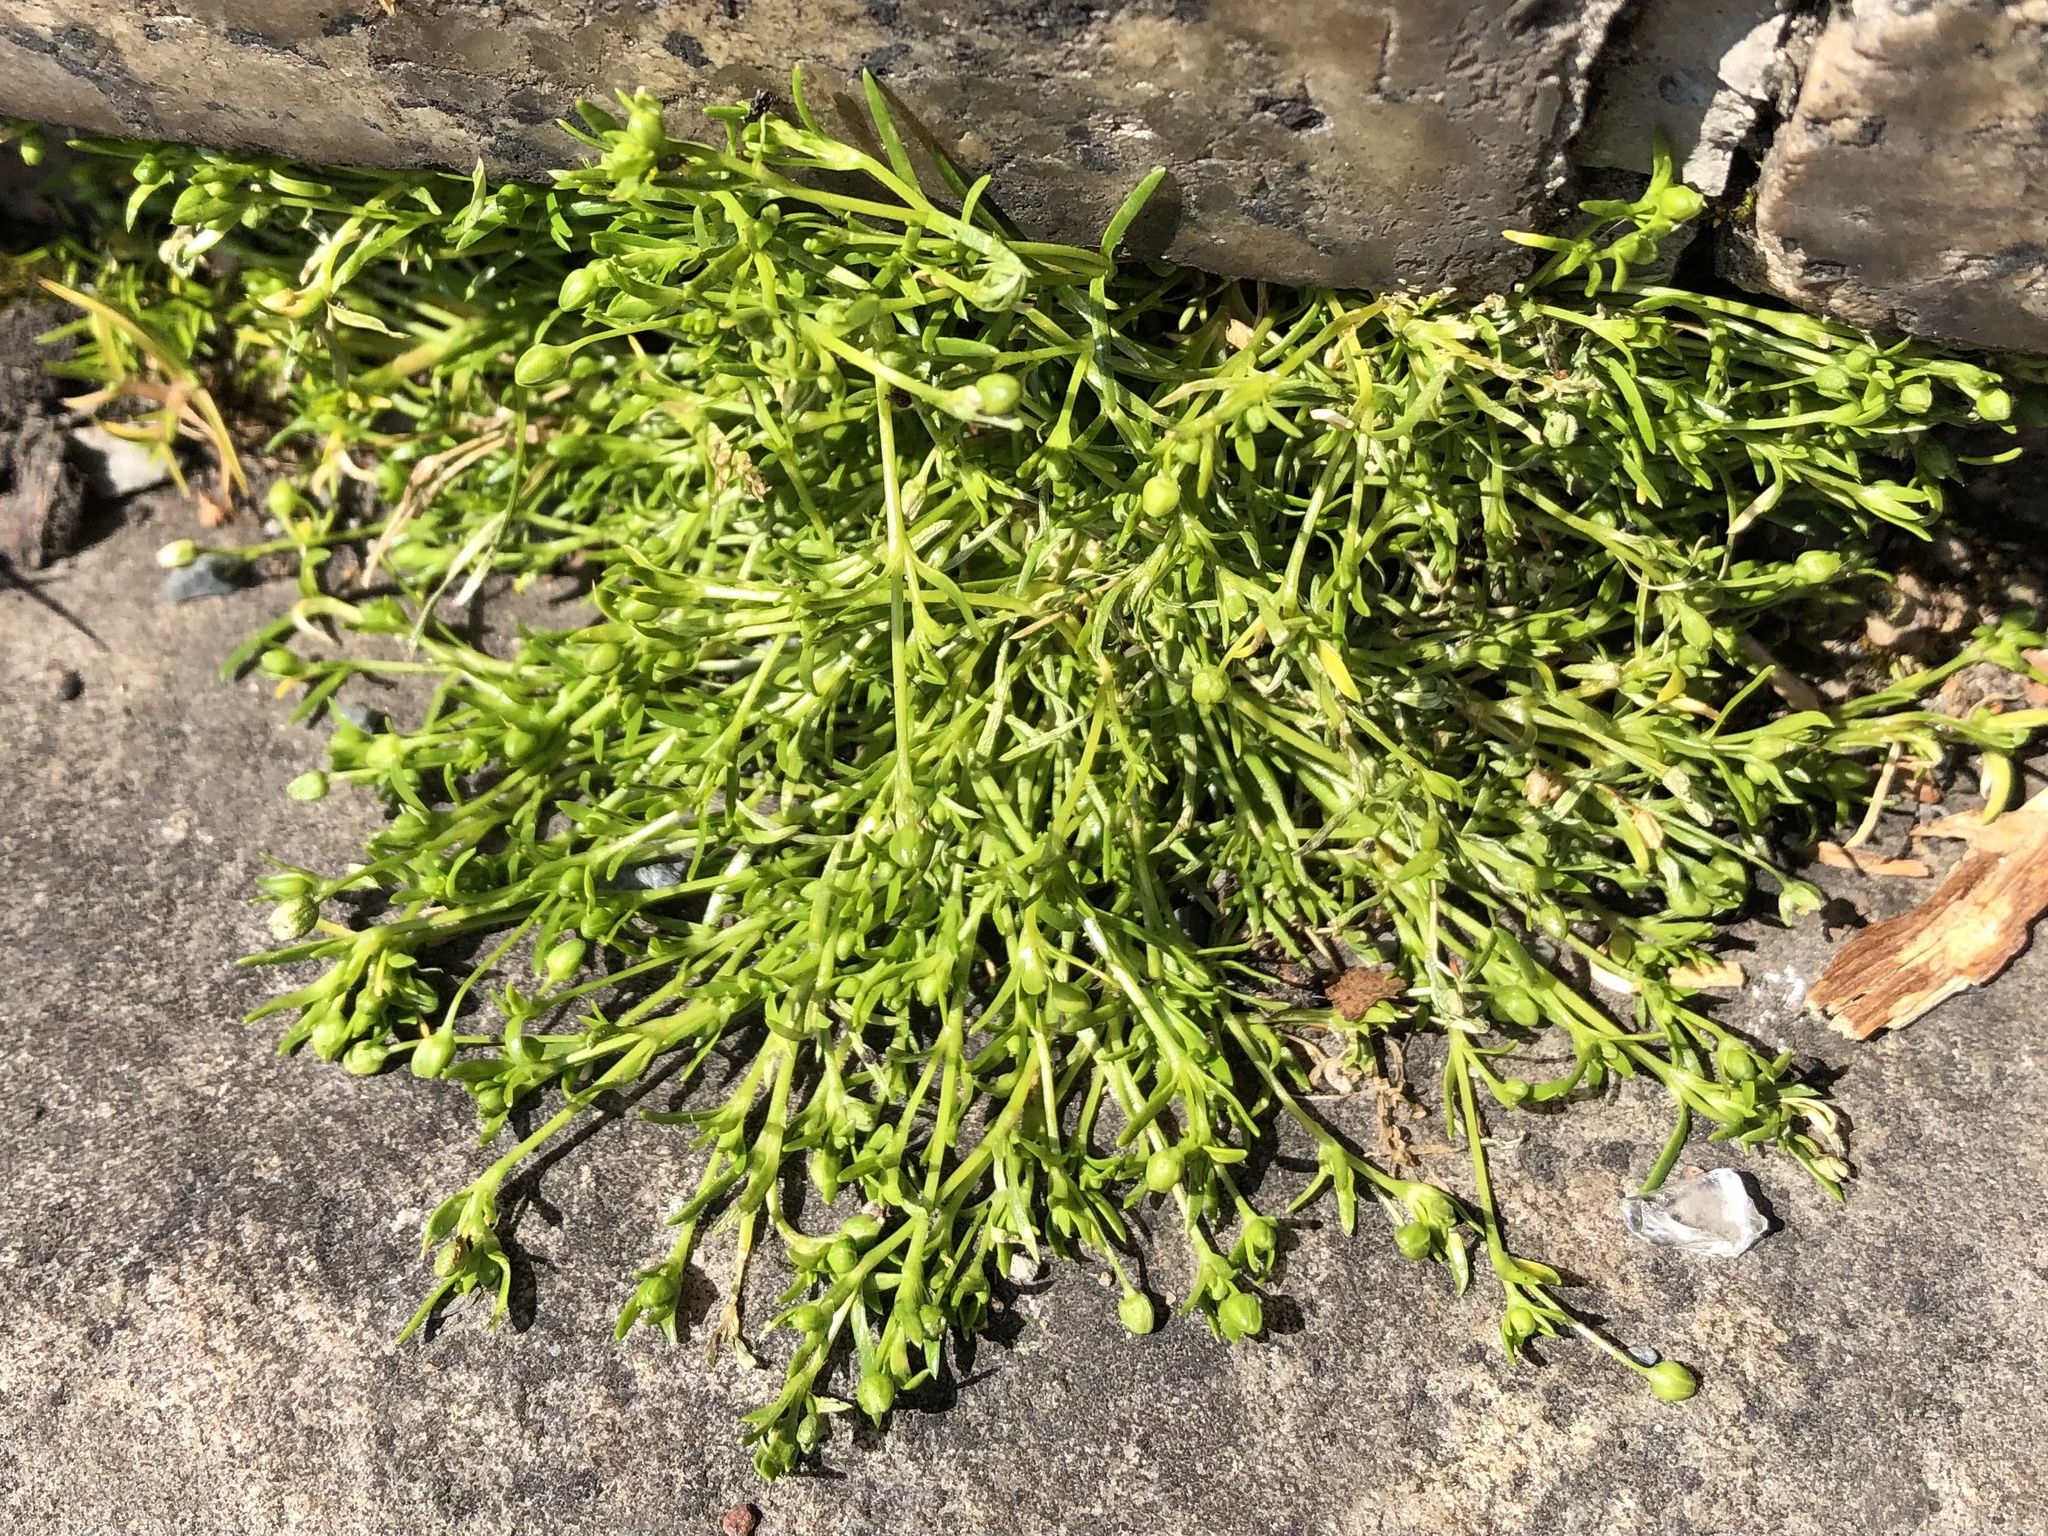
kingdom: Plantae
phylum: Tracheophyta
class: Magnoliopsida
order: Caryophyllales
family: Caryophyllaceae
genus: Sagina
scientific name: Sagina procumbens
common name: Procumbent pearlwort
